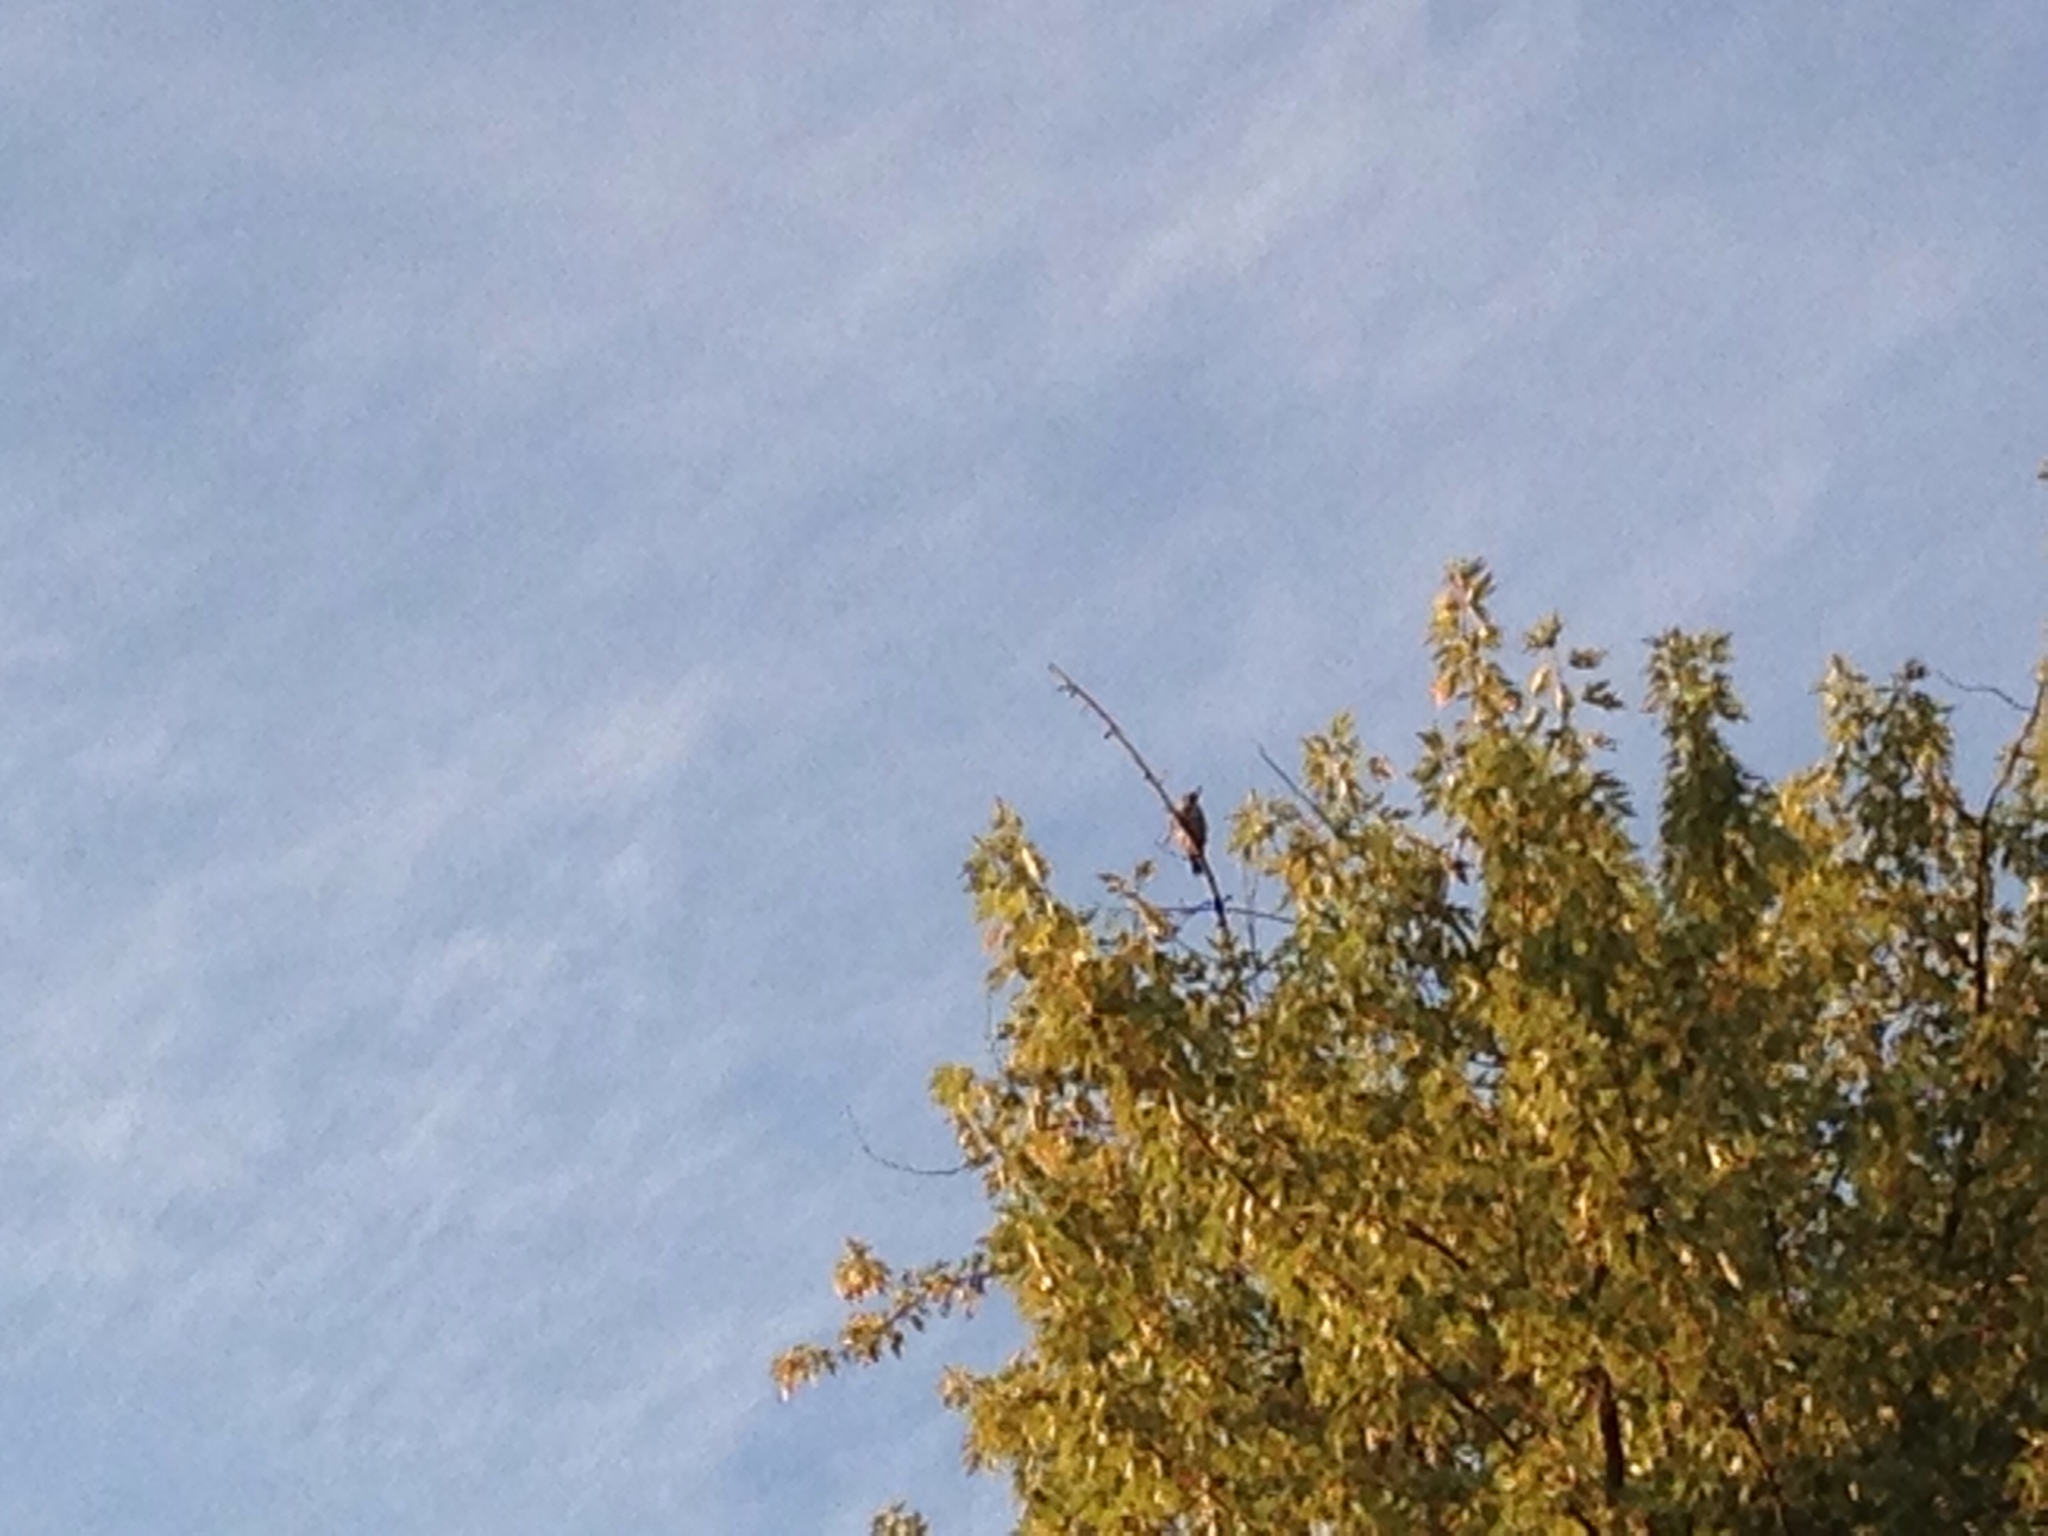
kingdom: Animalia
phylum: Chordata
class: Aves
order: Piciformes
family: Picidae
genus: Picus
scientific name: Picus viridis
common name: European green woodpecker
